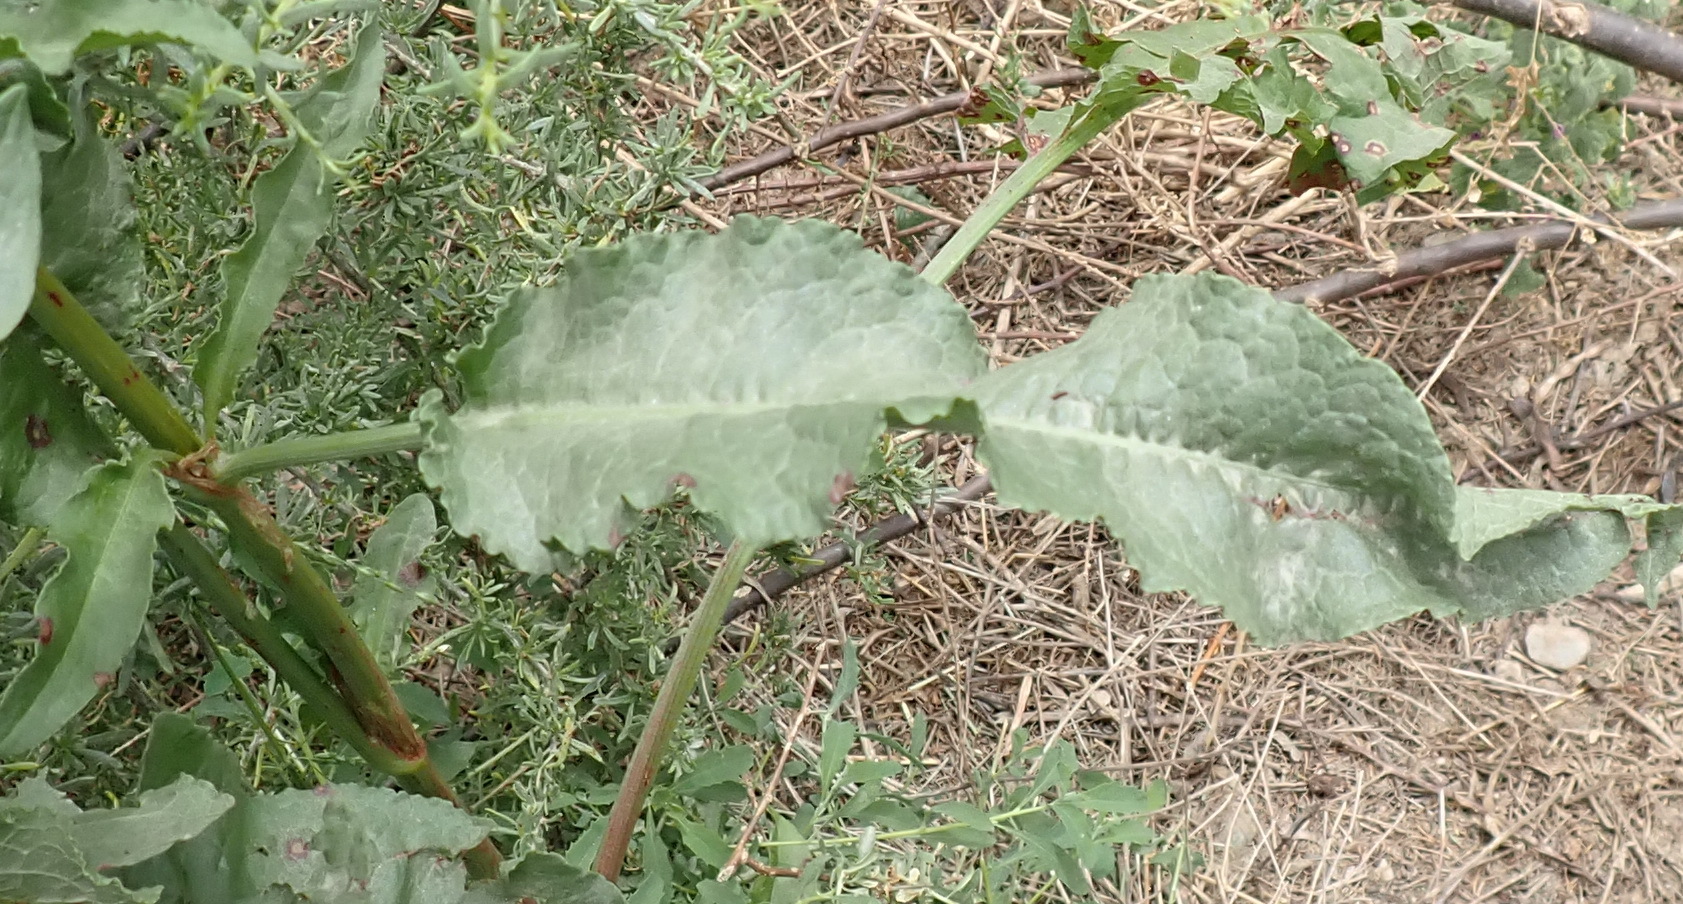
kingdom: Plantae
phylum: Tracheophyta
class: Magnoliopsida
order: Caryophyllales
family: Polygonaceae
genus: Rumex
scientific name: Rumex crispus
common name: Curled dock
